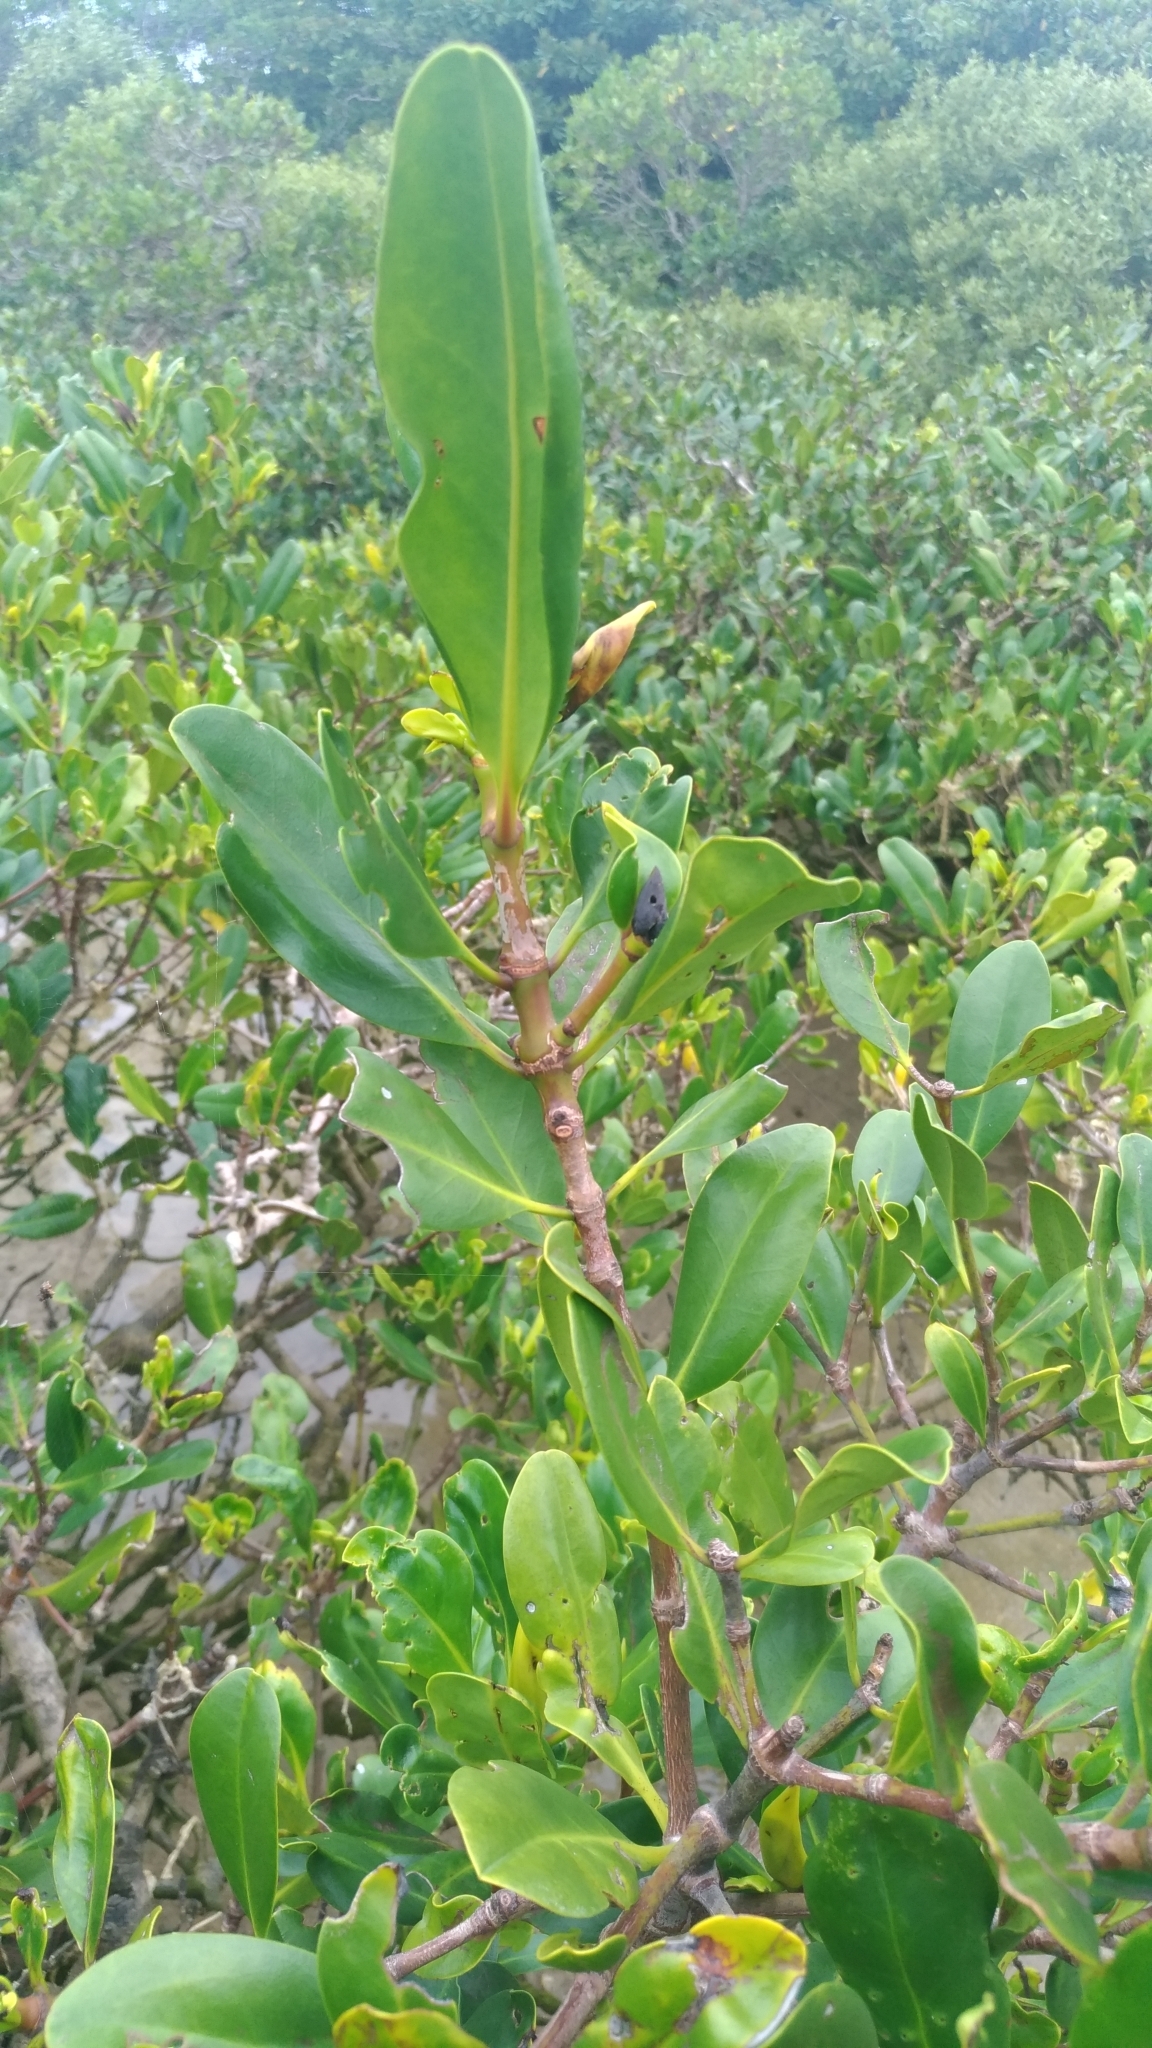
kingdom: Plantae
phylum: Tracheophyta
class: Magnoliopsida
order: Malpighiales
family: Rhizophoraceae
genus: Kandelia
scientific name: Kandelia obovata
